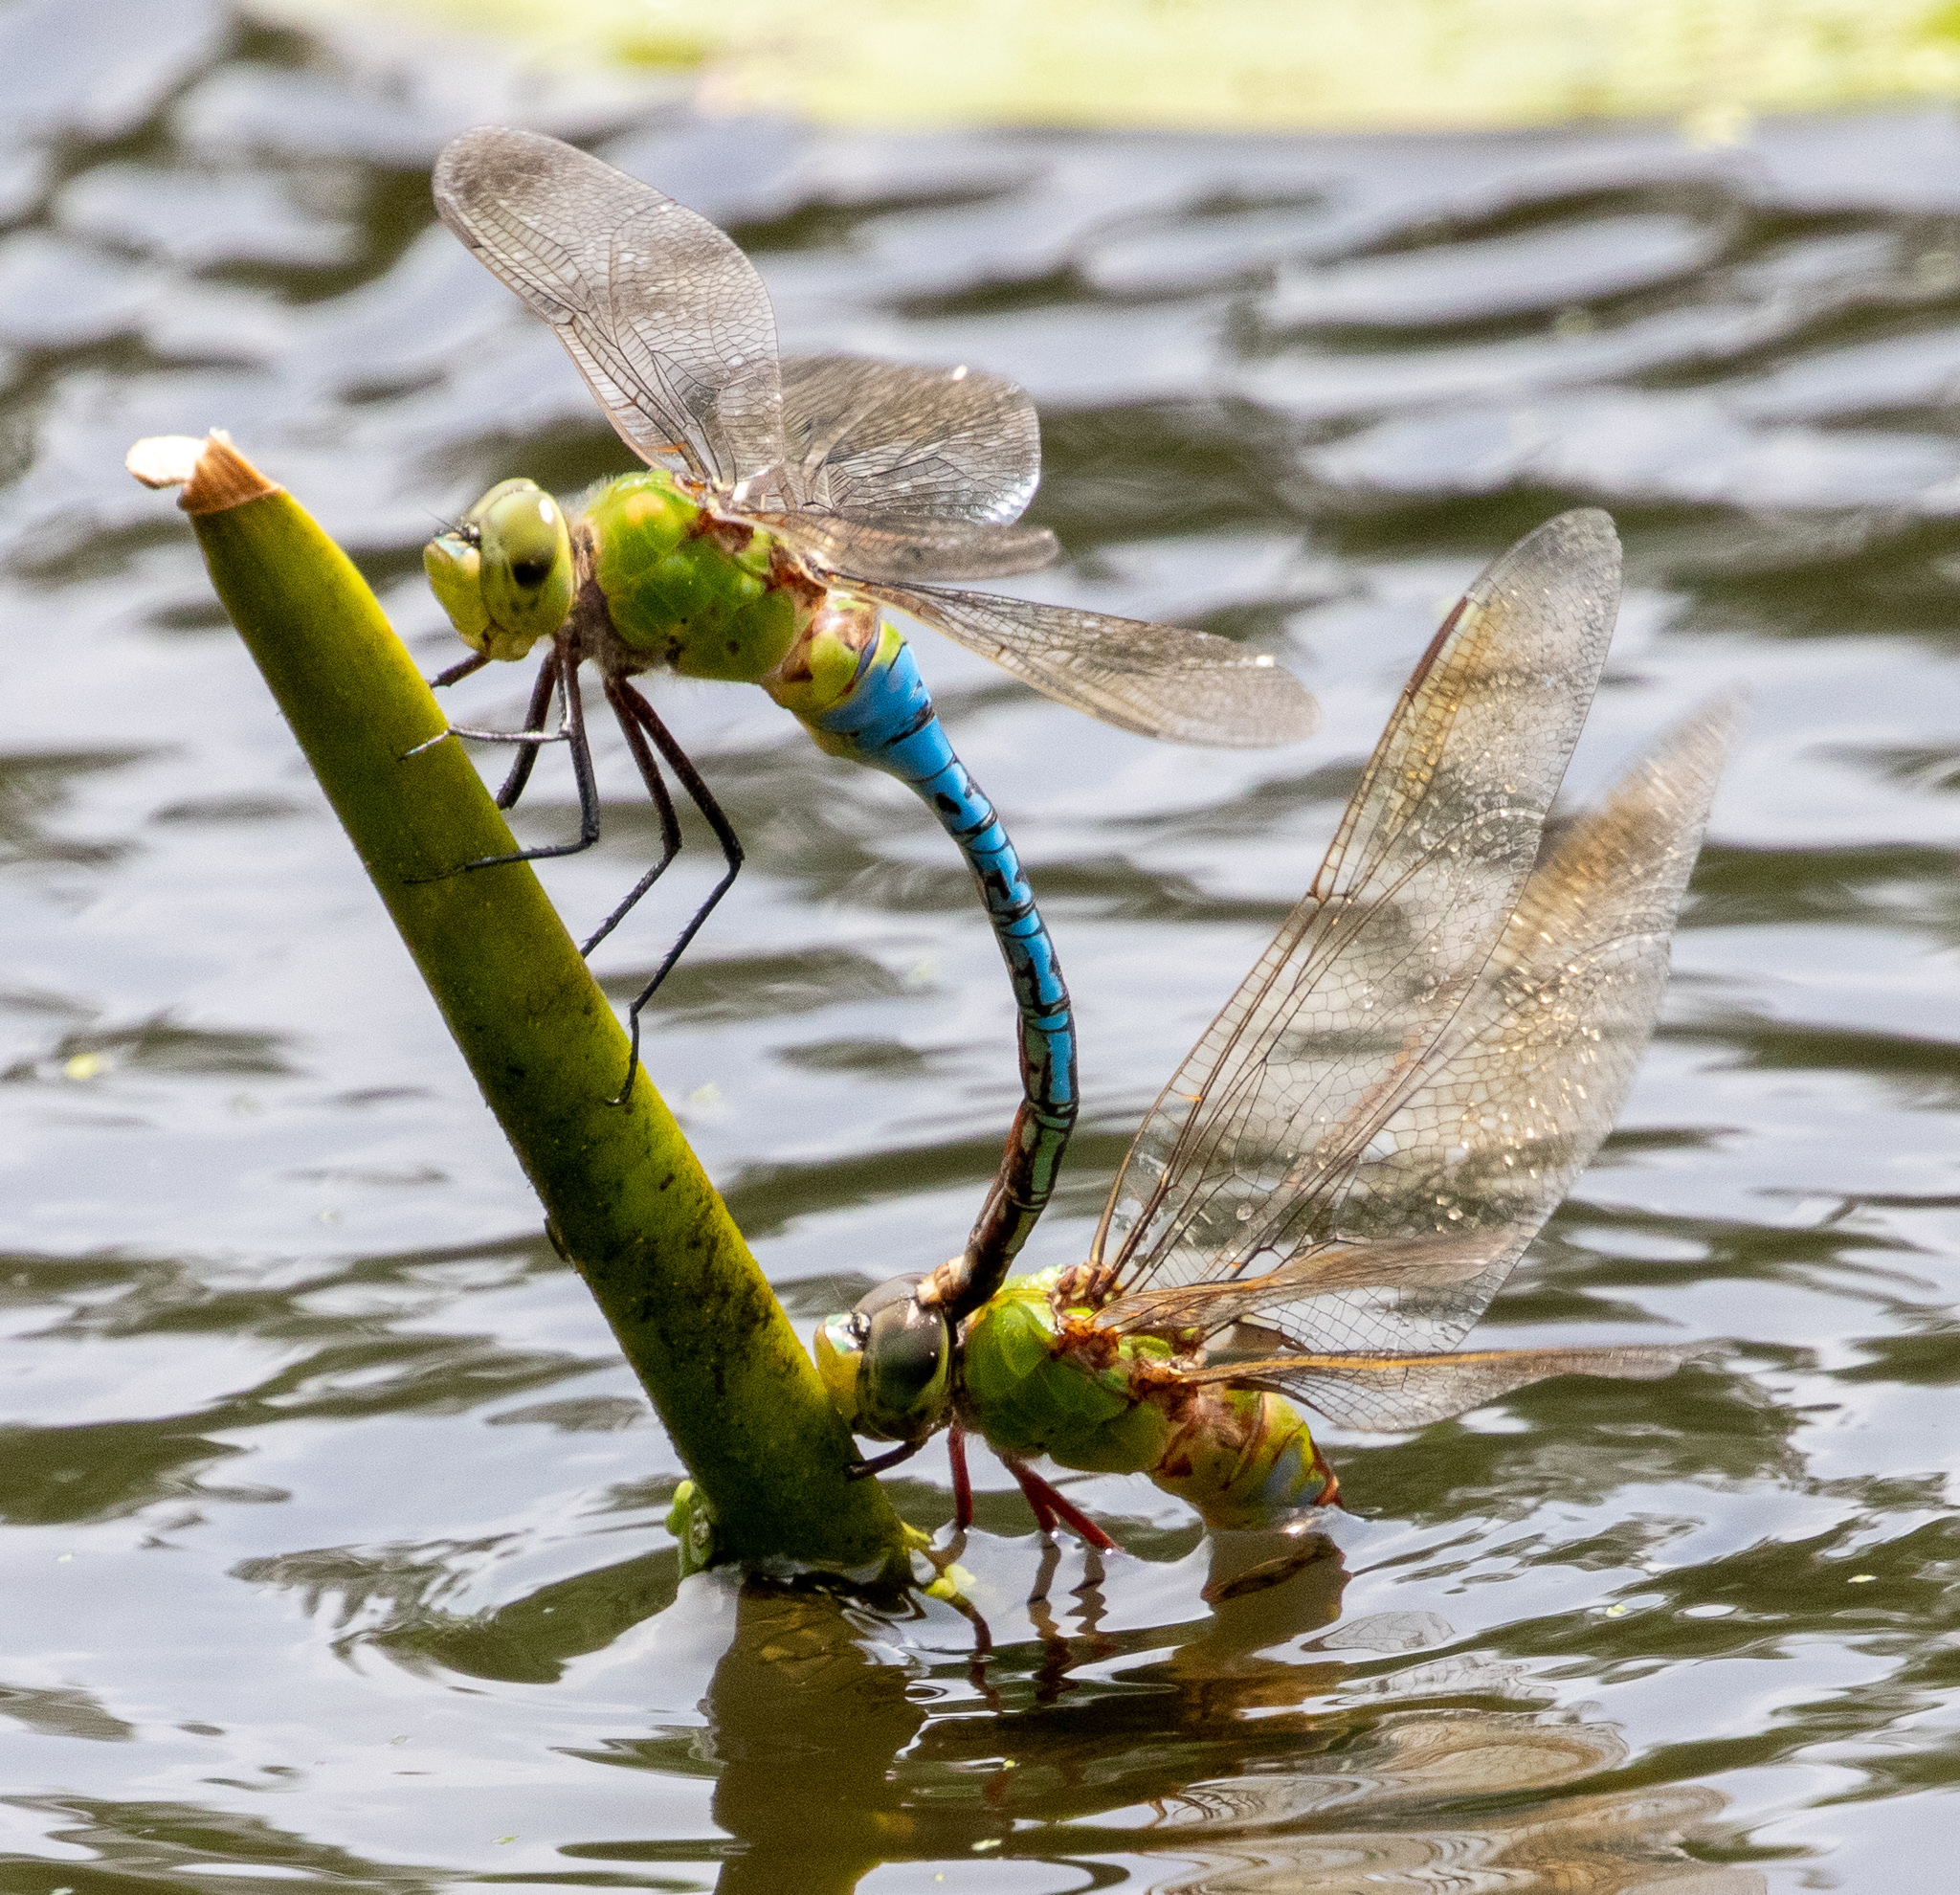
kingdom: Animalia
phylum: Arthropoda
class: Insecta
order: Odonata
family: Aeshnidae
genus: Anax
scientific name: Anax junius
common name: Common green darner
